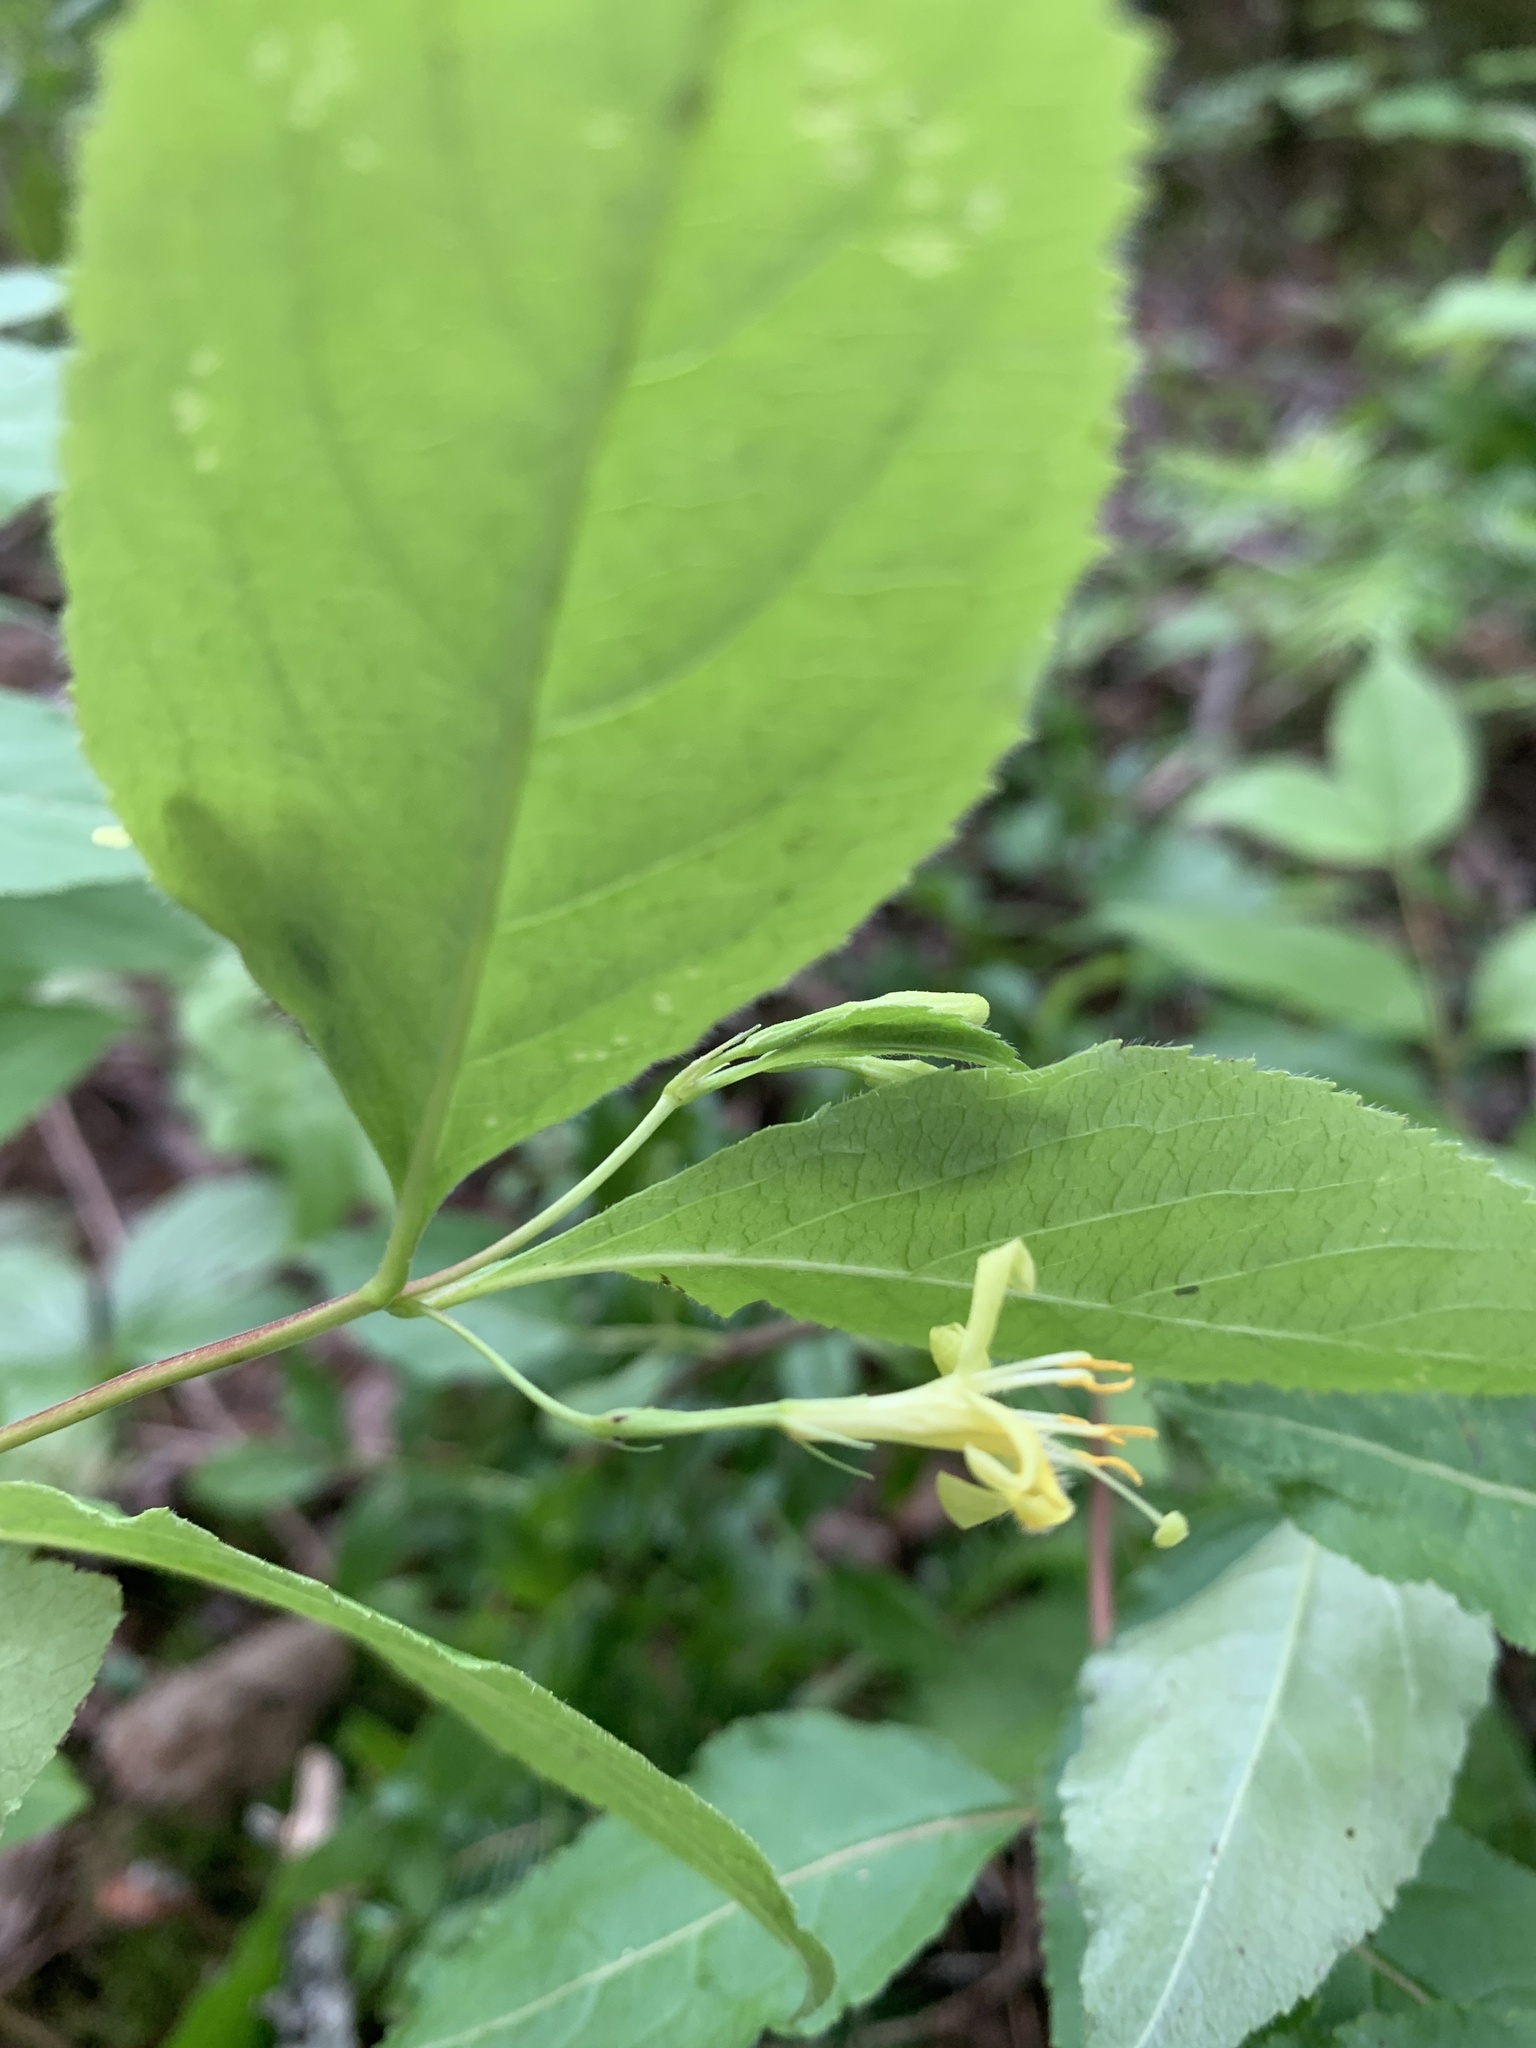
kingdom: Plantae
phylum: Tracheophyta
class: Magnoliopsida
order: Dipsacales
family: Caprifoliaceae
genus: Diervilla
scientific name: Diervilla lonicera
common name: Bush-honeysuckle
